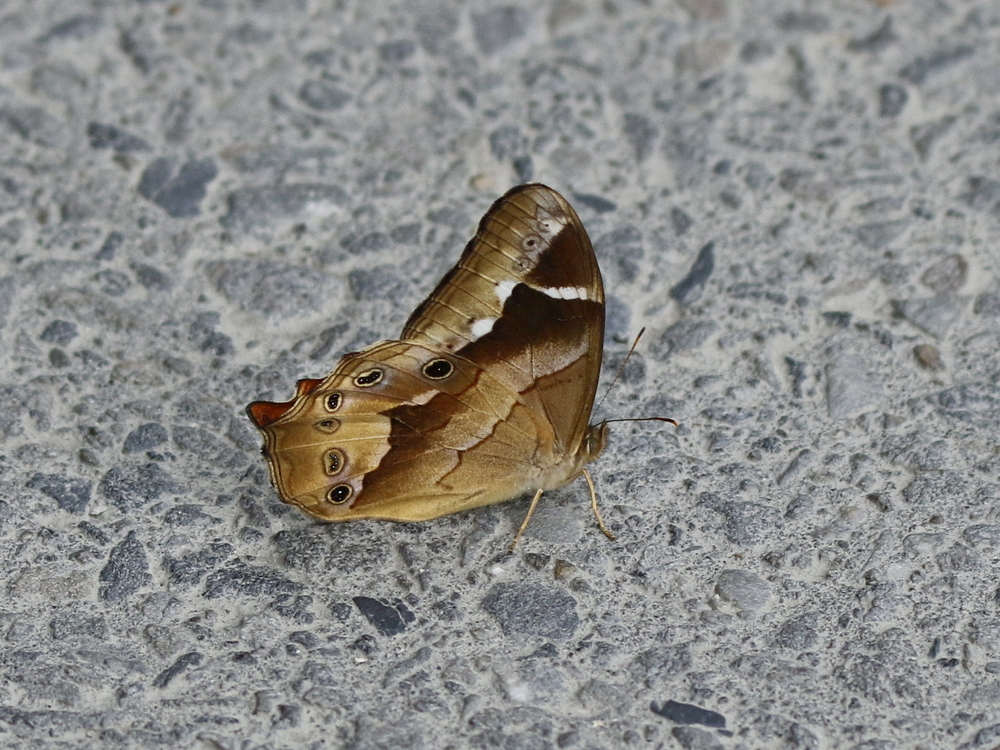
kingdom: Animalia
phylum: Arthropoda
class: Insecta
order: Lepidoptera
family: Nymphalidae
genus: Lethe
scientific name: Lethe chandica
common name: Angled red forester
